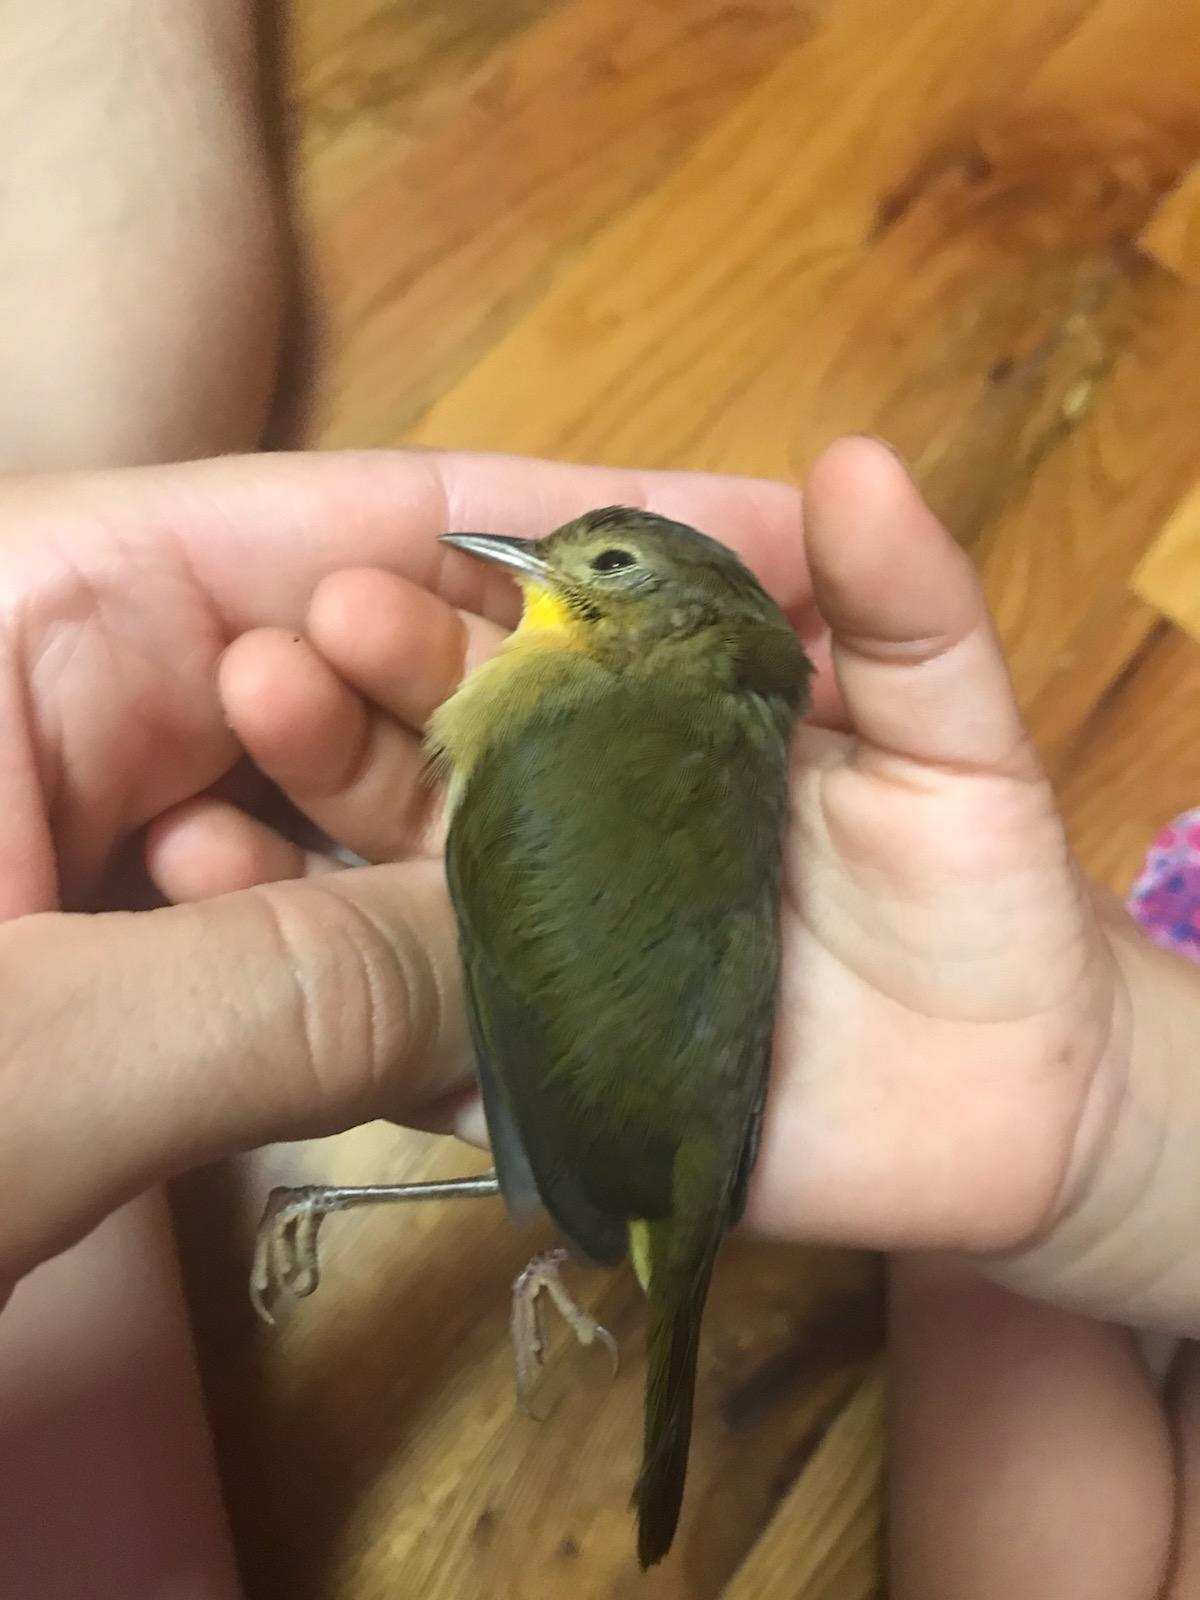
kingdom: Animalia
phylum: Chordata
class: Aves
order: Passeriformes
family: Parulidae
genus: Geothlypis
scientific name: Geothlypis trichas
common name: Common yellowthroat
